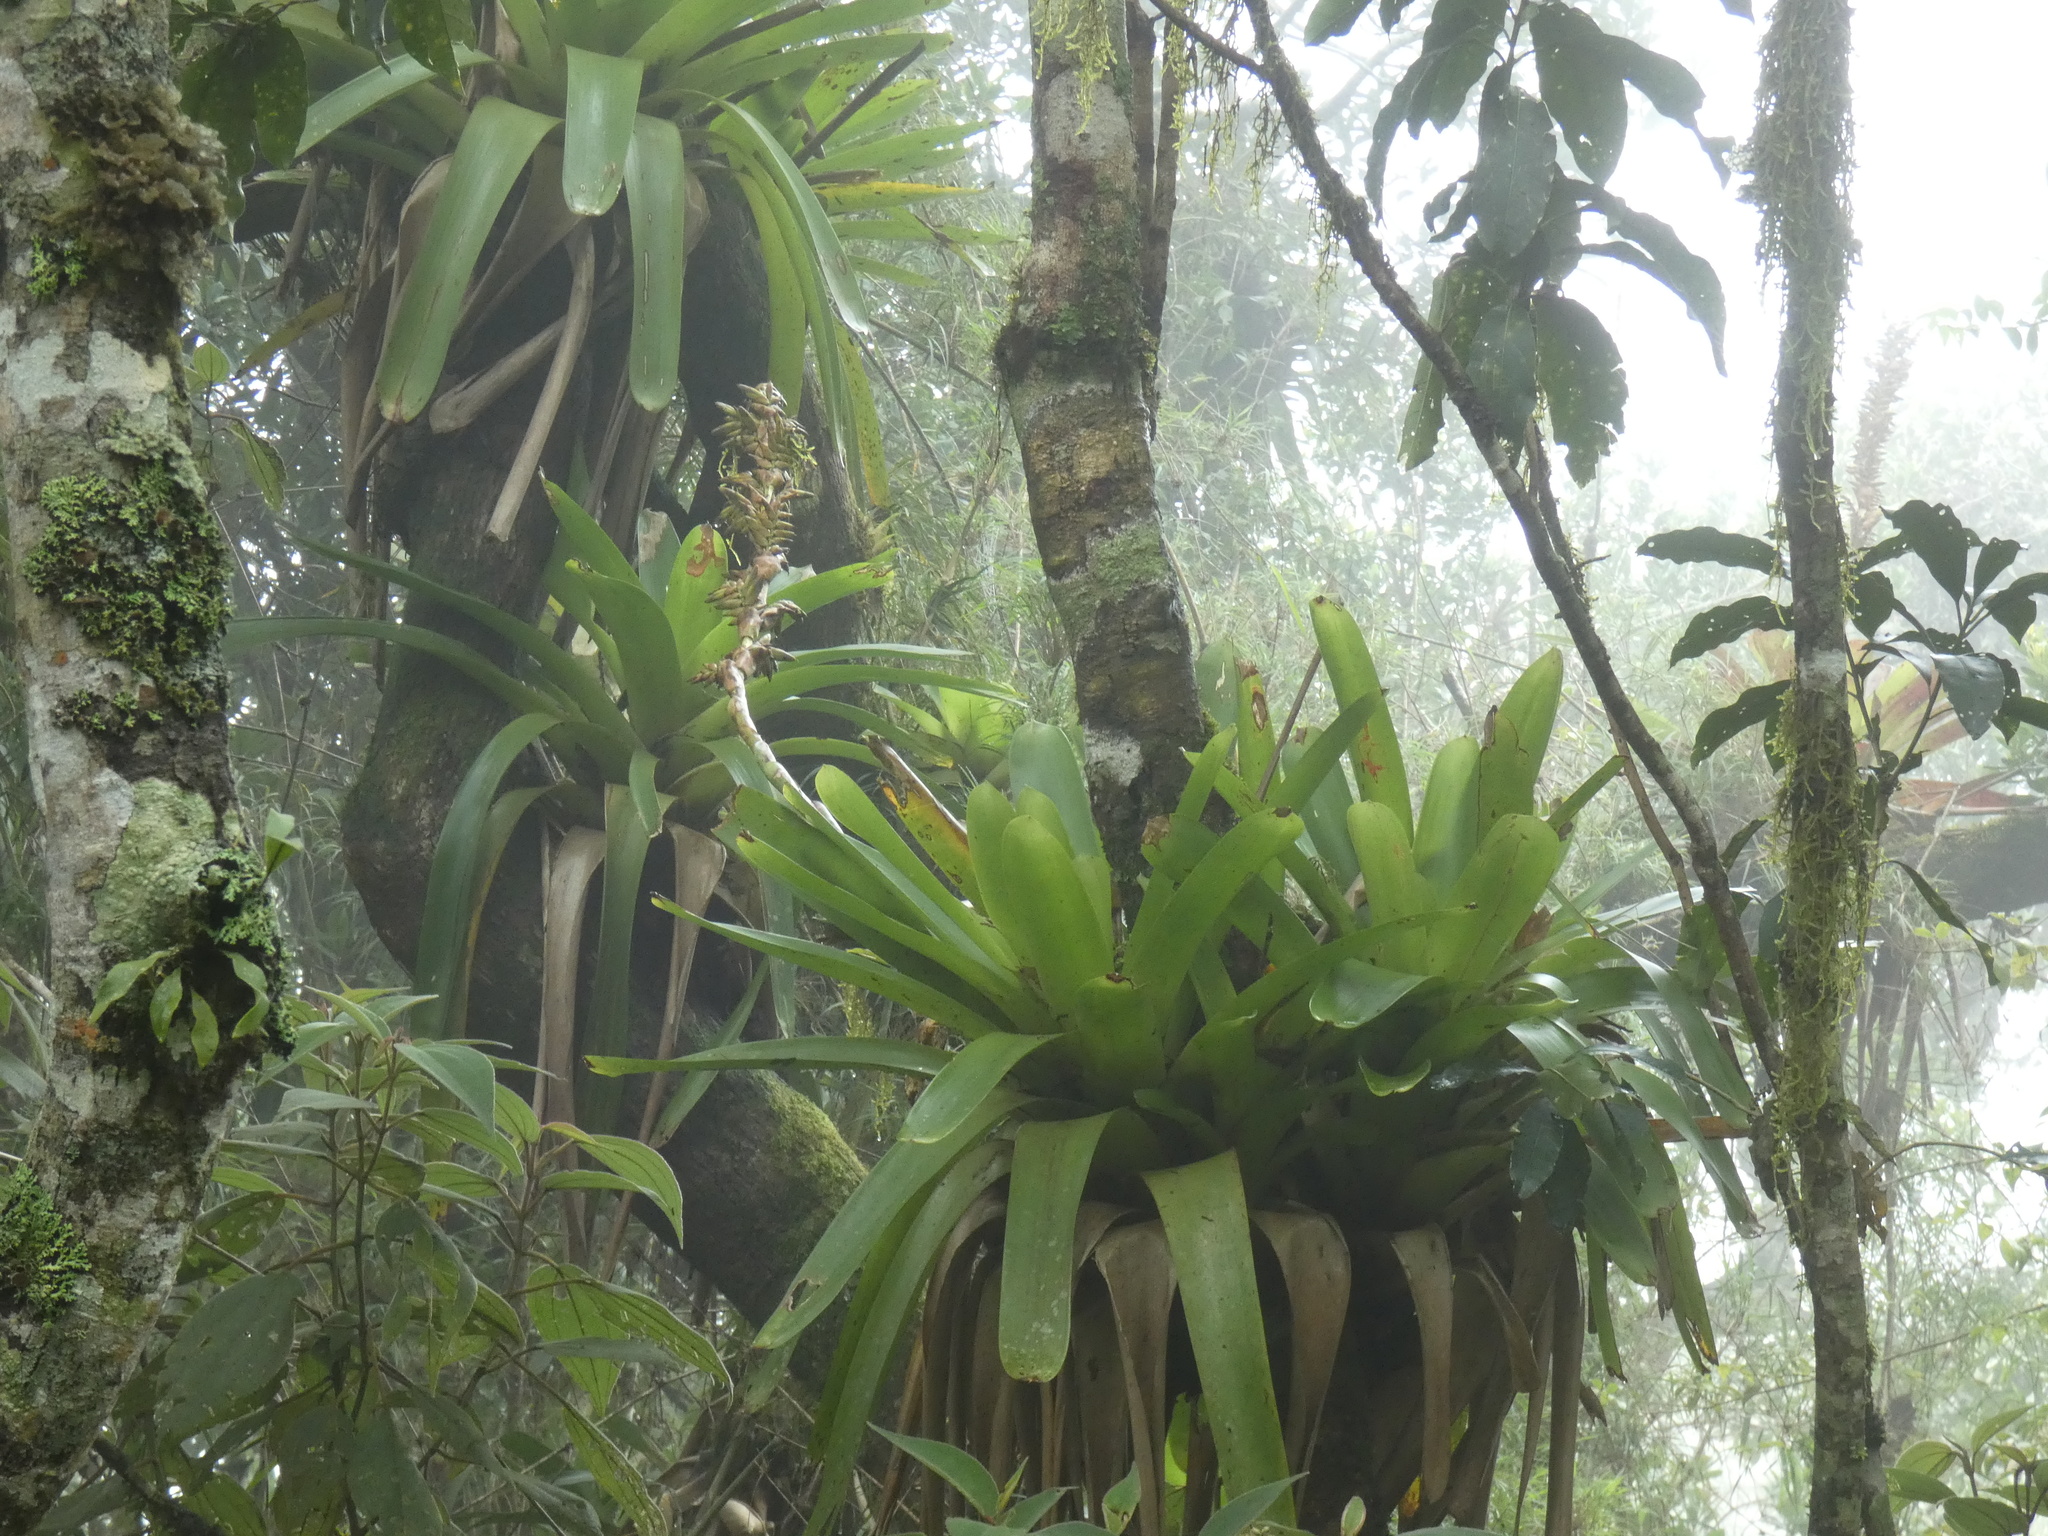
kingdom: Plantae
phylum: Tracheophyta
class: Liliopsida
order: Poales
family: Bromeliaceae
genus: Vriesea
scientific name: Vriesea thyrsoidea
